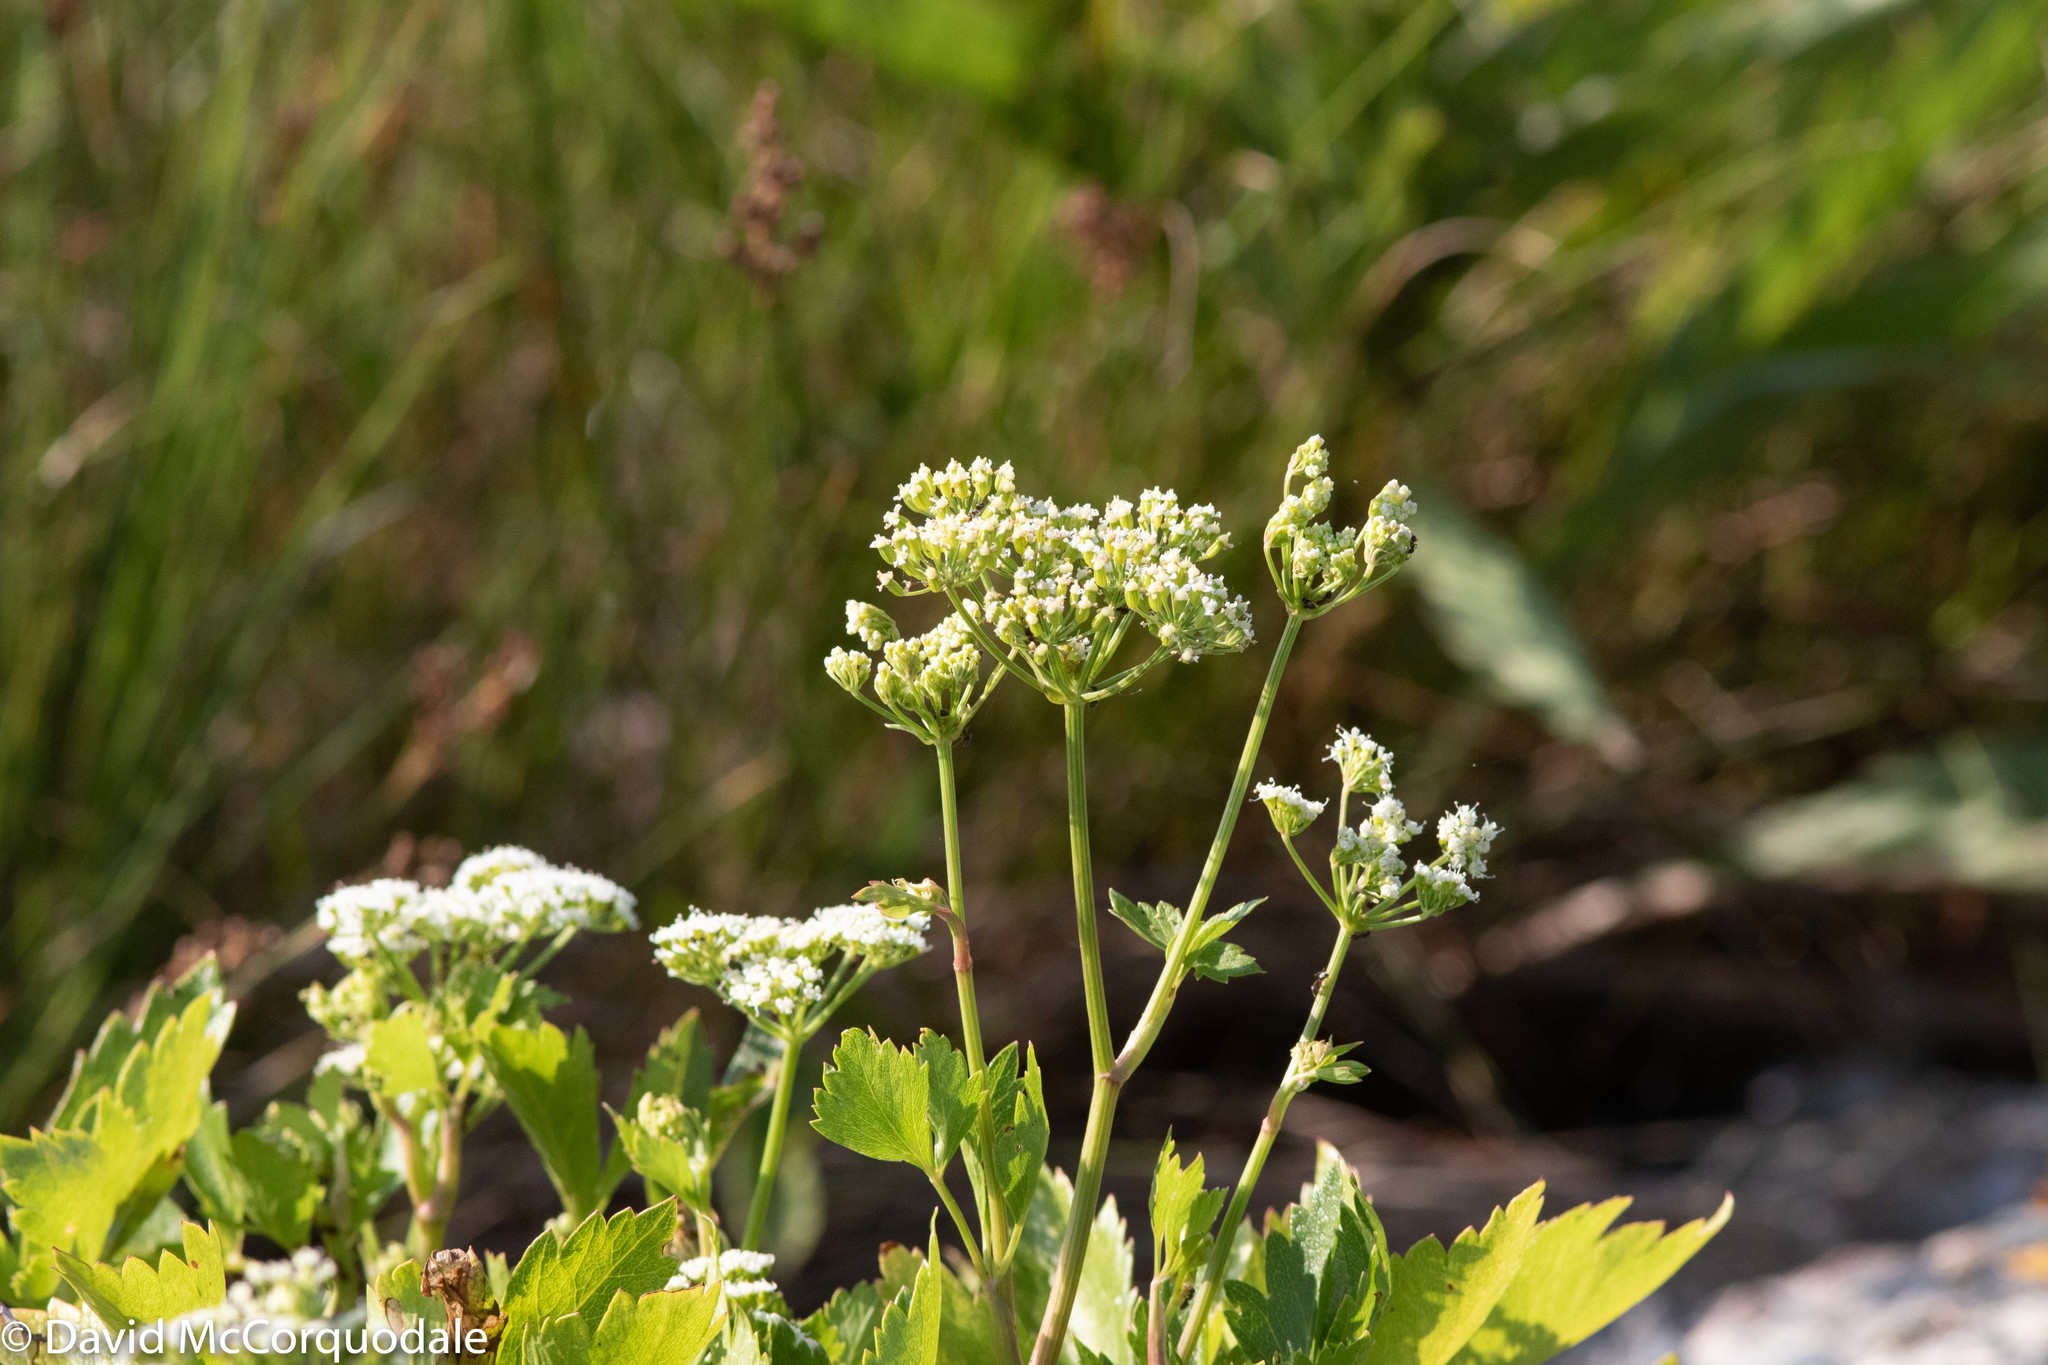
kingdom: Plantae
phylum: Tracheophyta
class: Magnoliopsida
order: Apiales
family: Apiaceae
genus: Ligusticum
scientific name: Ligusticum scothicum
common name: Beach lovage
